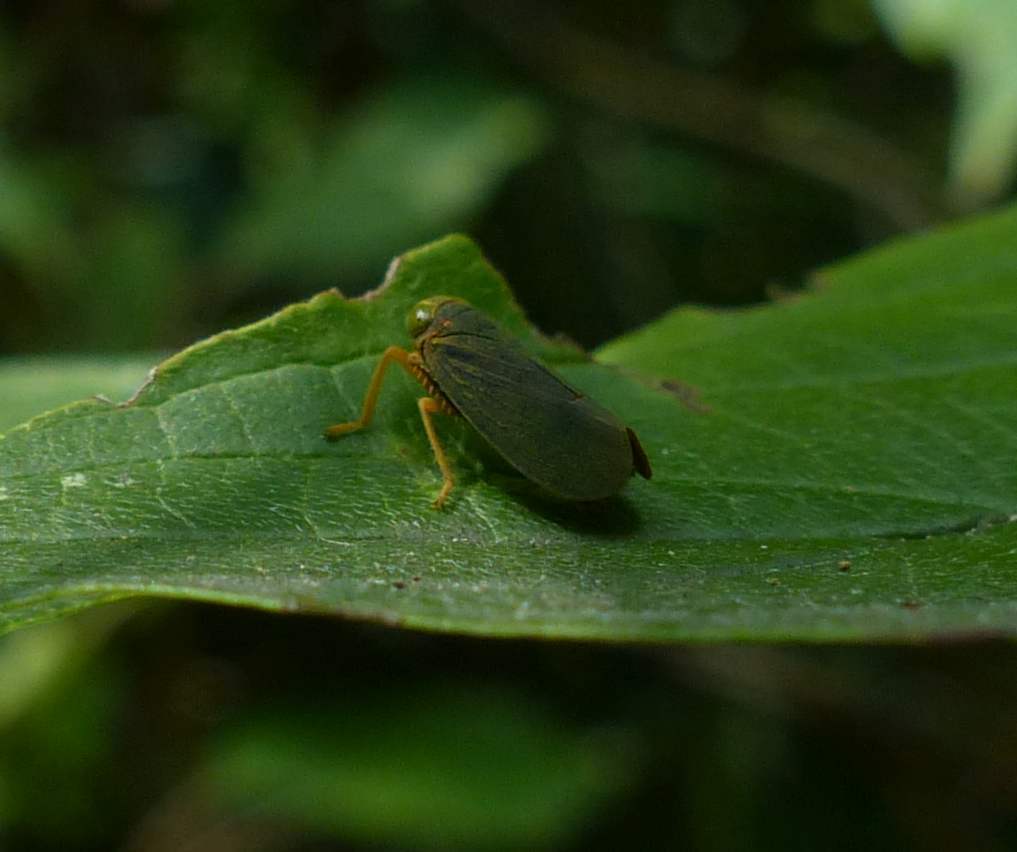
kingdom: Animalia
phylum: Arthropoda
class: Insecta
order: Hemiptera
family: Cicadellidae
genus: Jikradia
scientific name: Jikradia olitoria
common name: Coppery leafhopper
